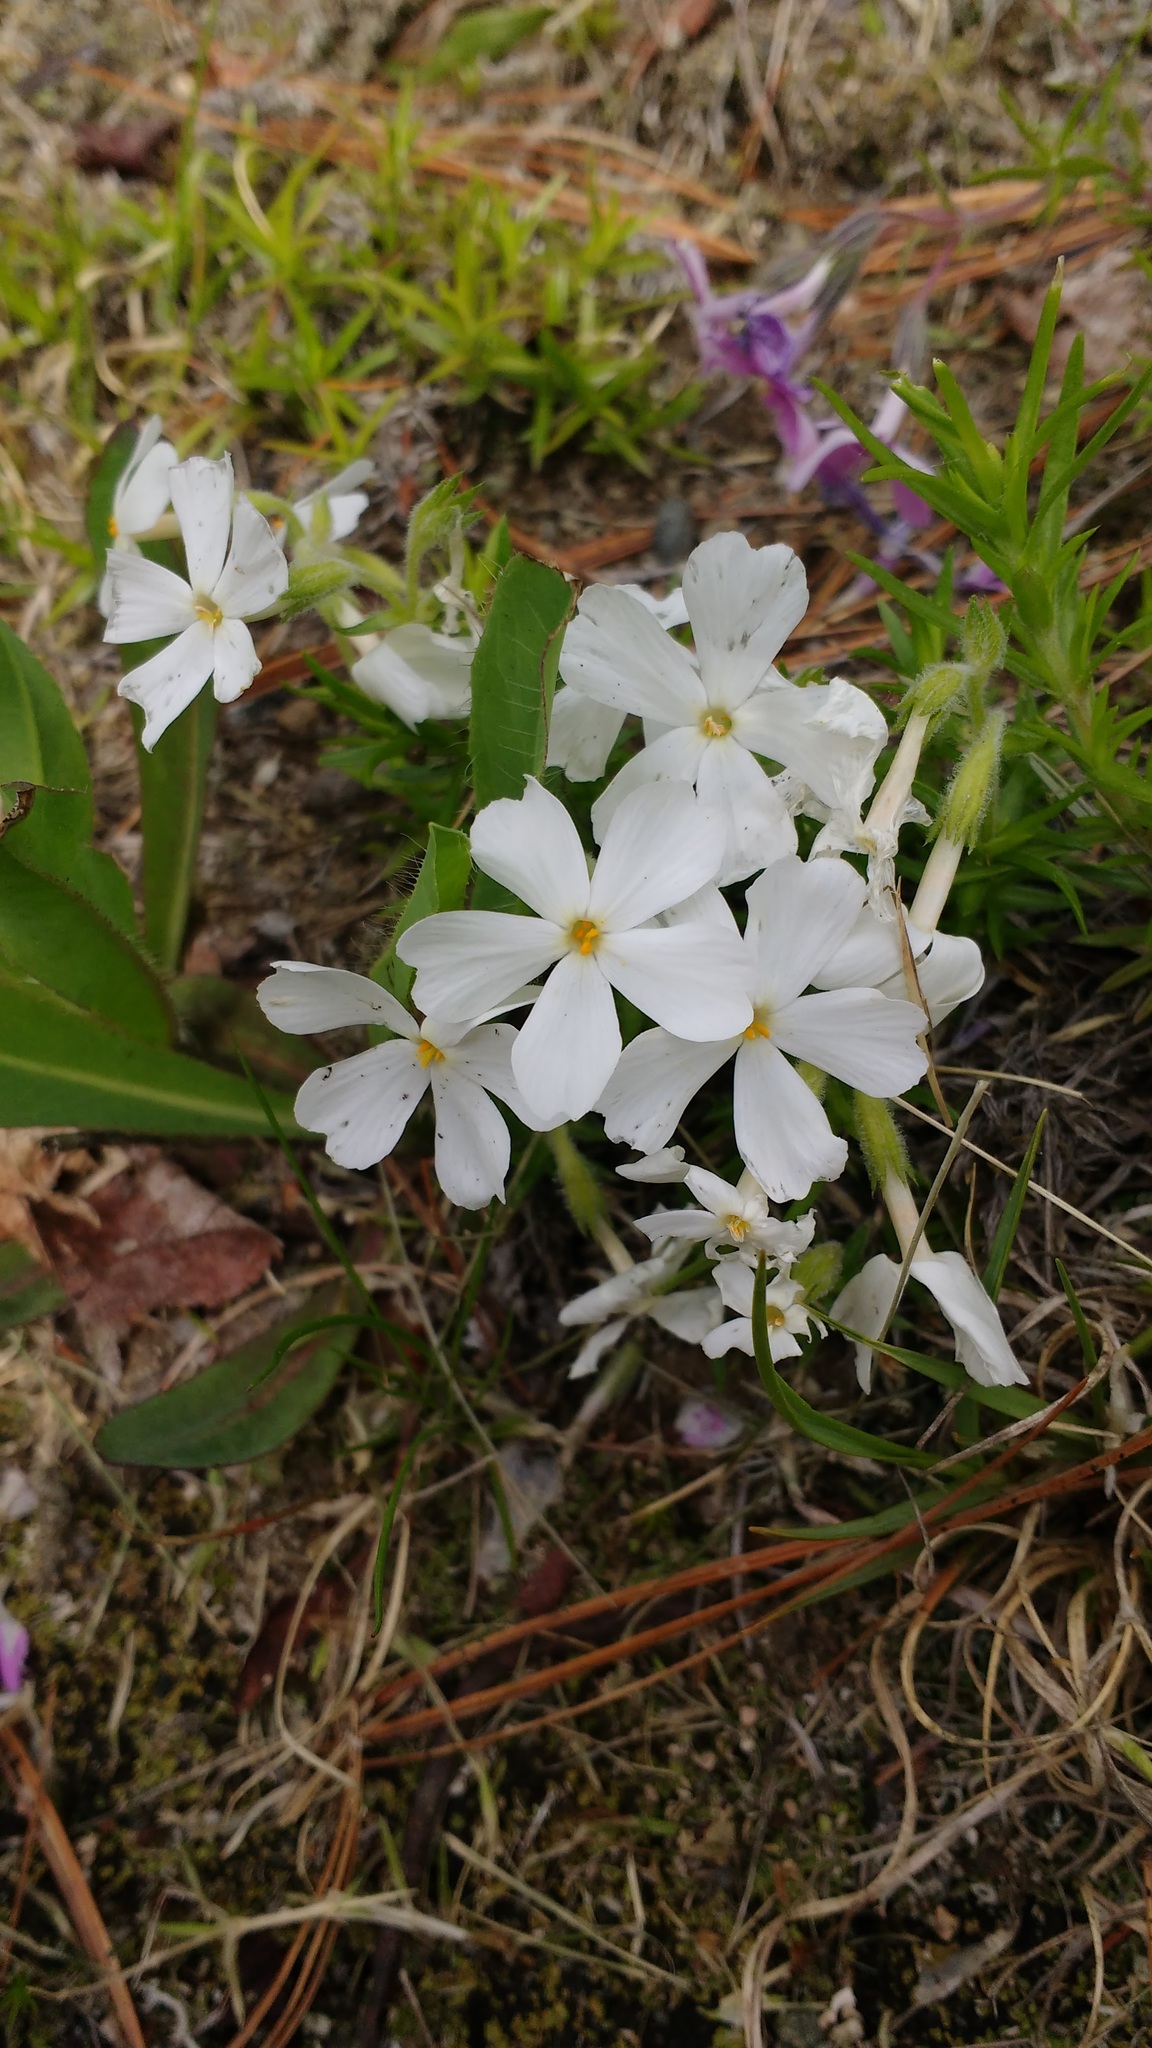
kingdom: Plantae
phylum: Tracheophyta
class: Magnoliopsida
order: Ericales
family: Polemoniaceae
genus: Phlox
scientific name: Phlox subulata
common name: Moss phlox
